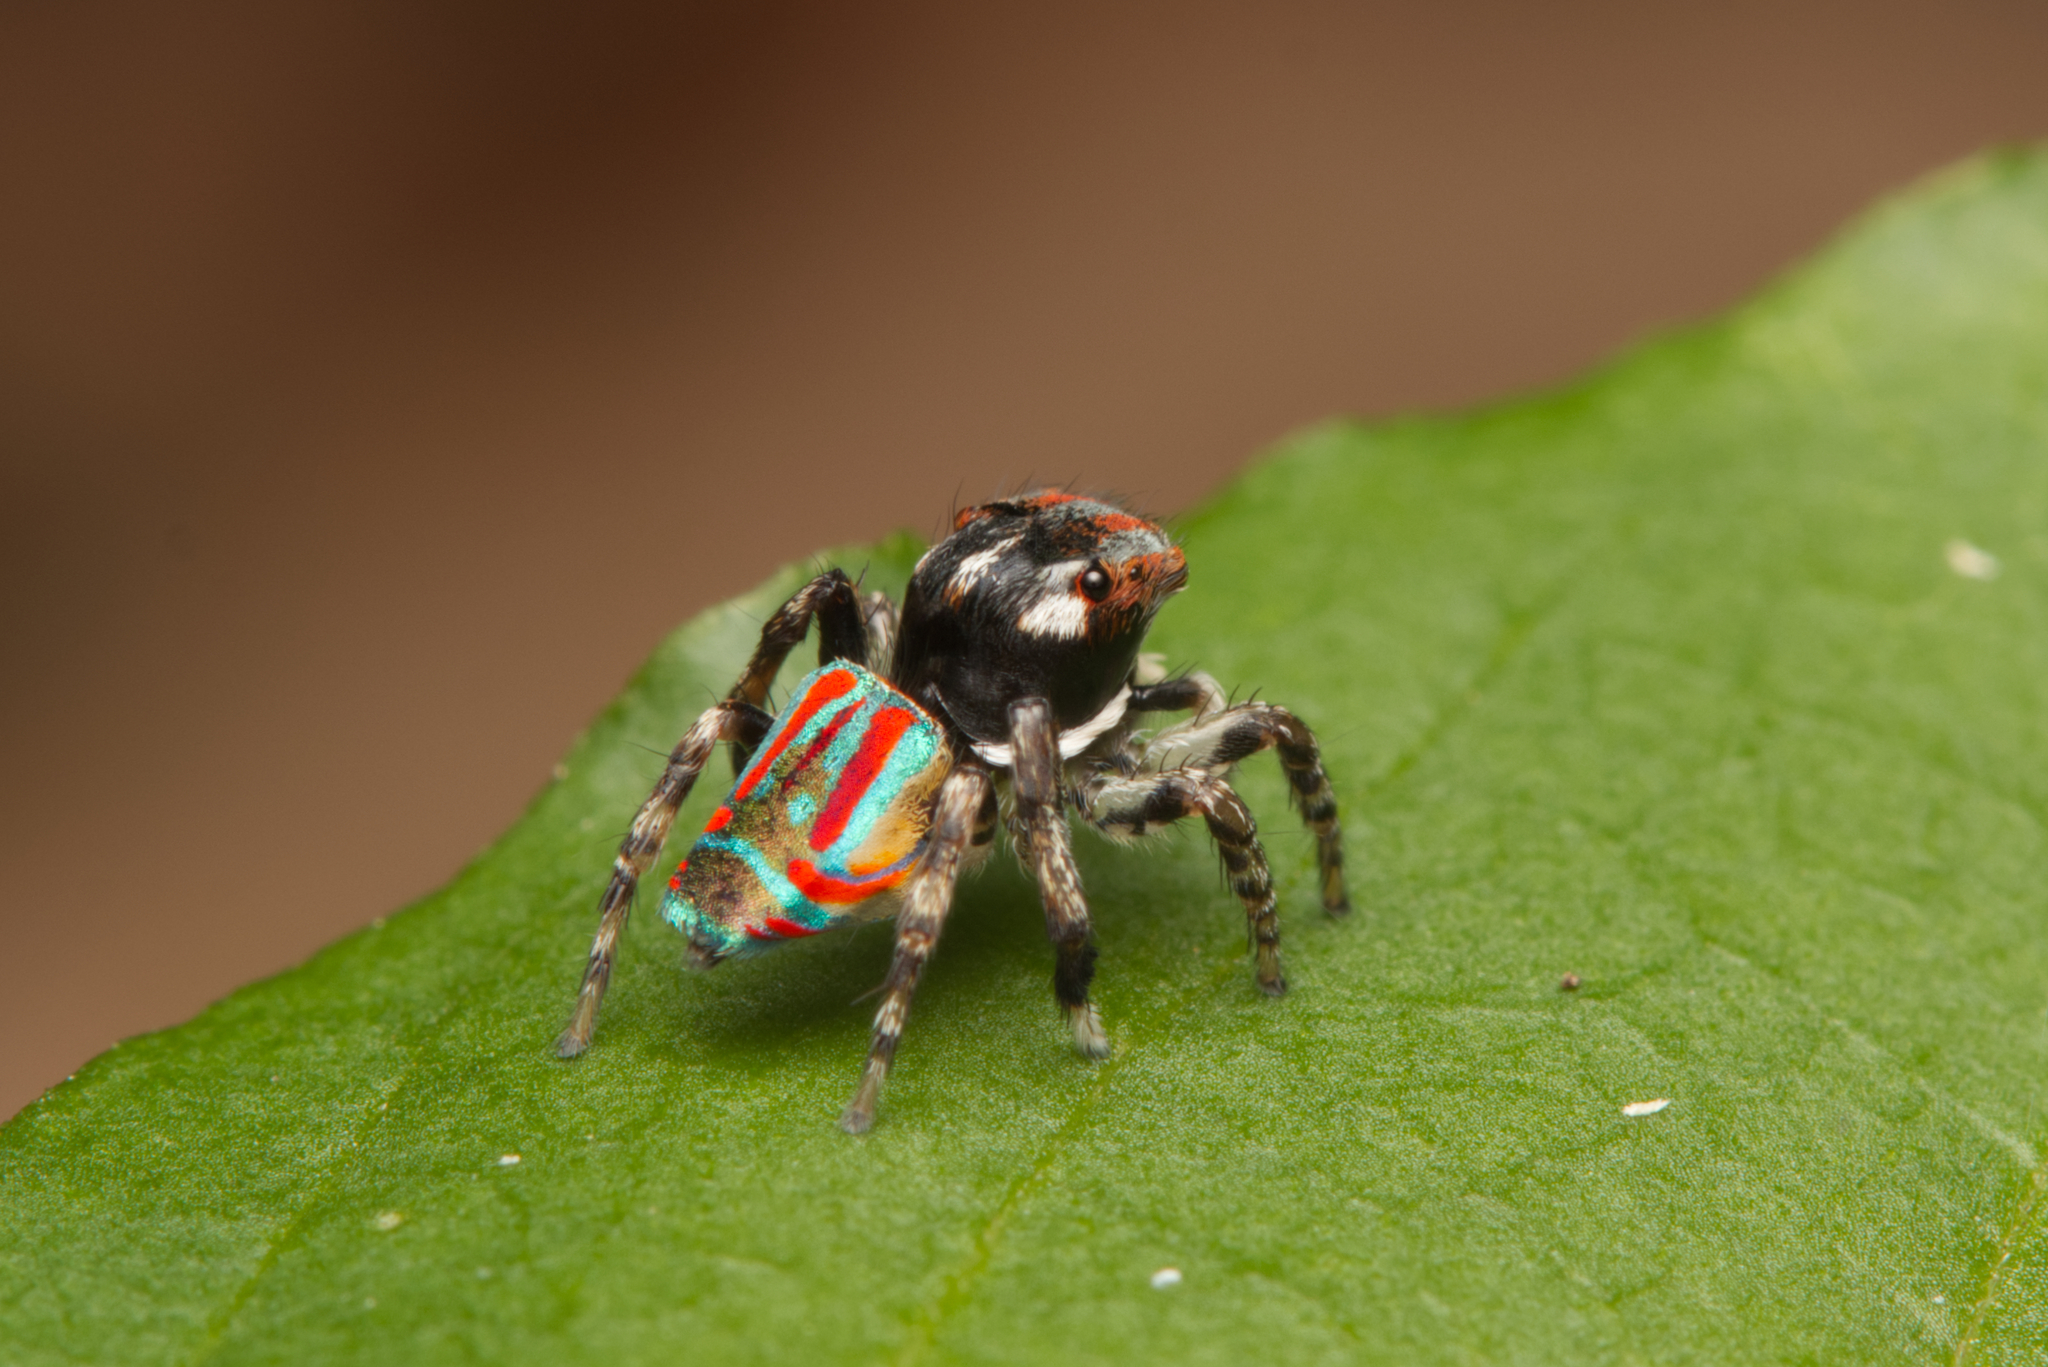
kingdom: Animalia
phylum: Arthropoda
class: Arachnida
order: Araneae
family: Salticidae
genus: Maratus
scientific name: Maratus volans
